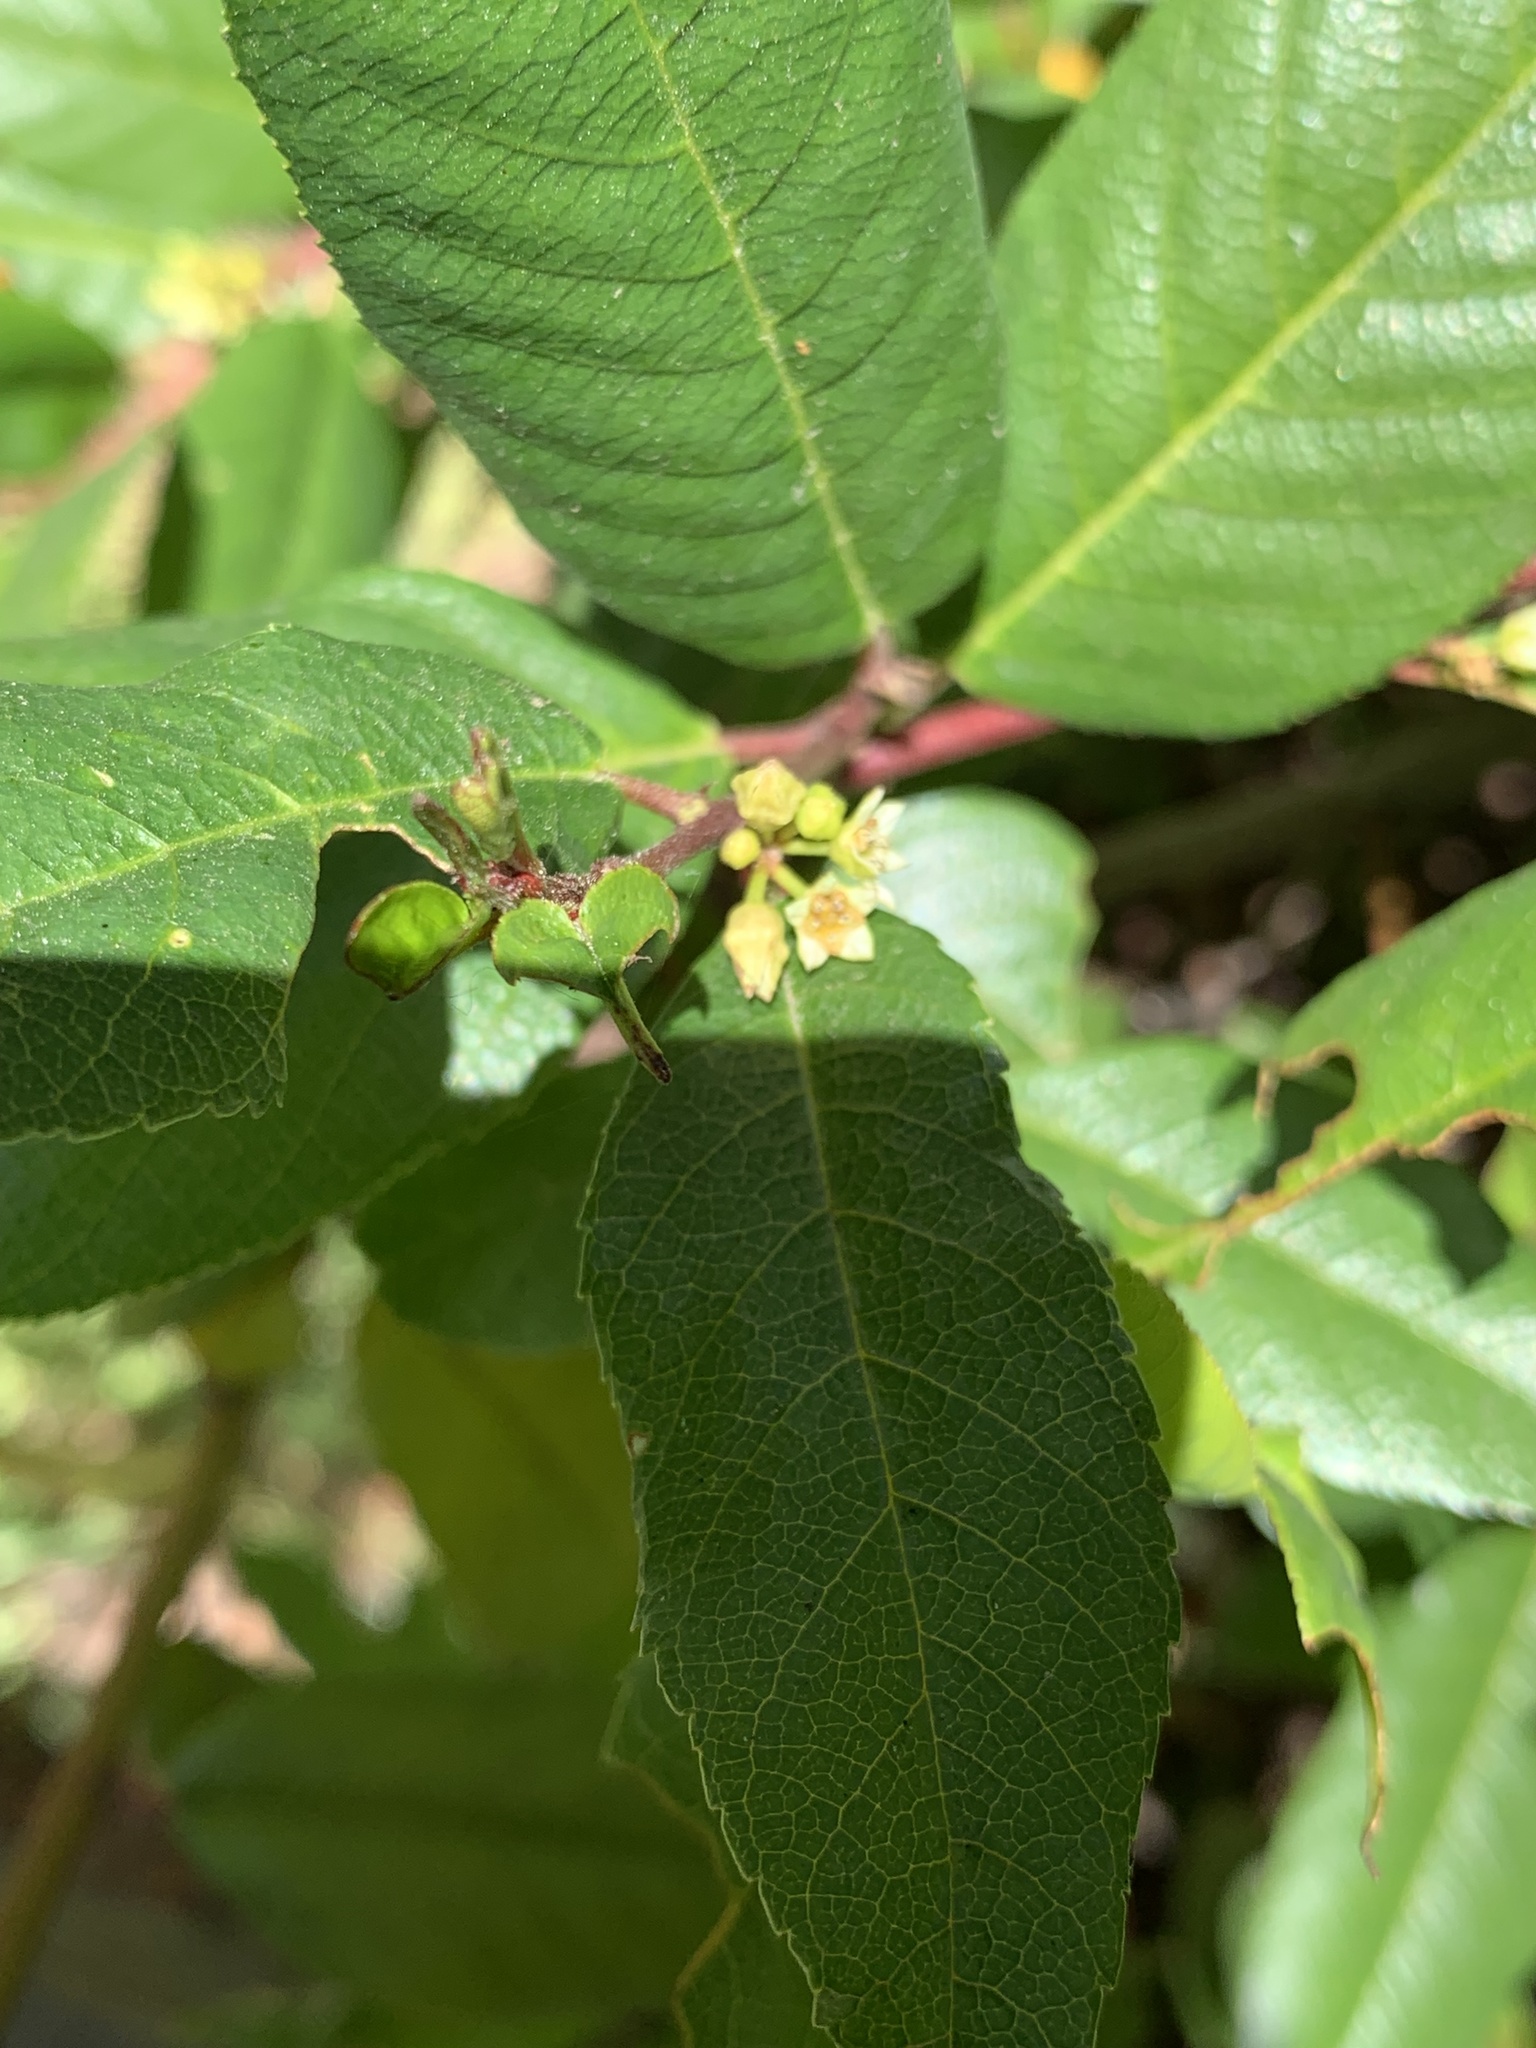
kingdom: Plantae
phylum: Tracheophyta
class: Magnoliopsida
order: Rosales
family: Rhamnaceae
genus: Frangula
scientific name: Frangula californica
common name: California buckthorn
